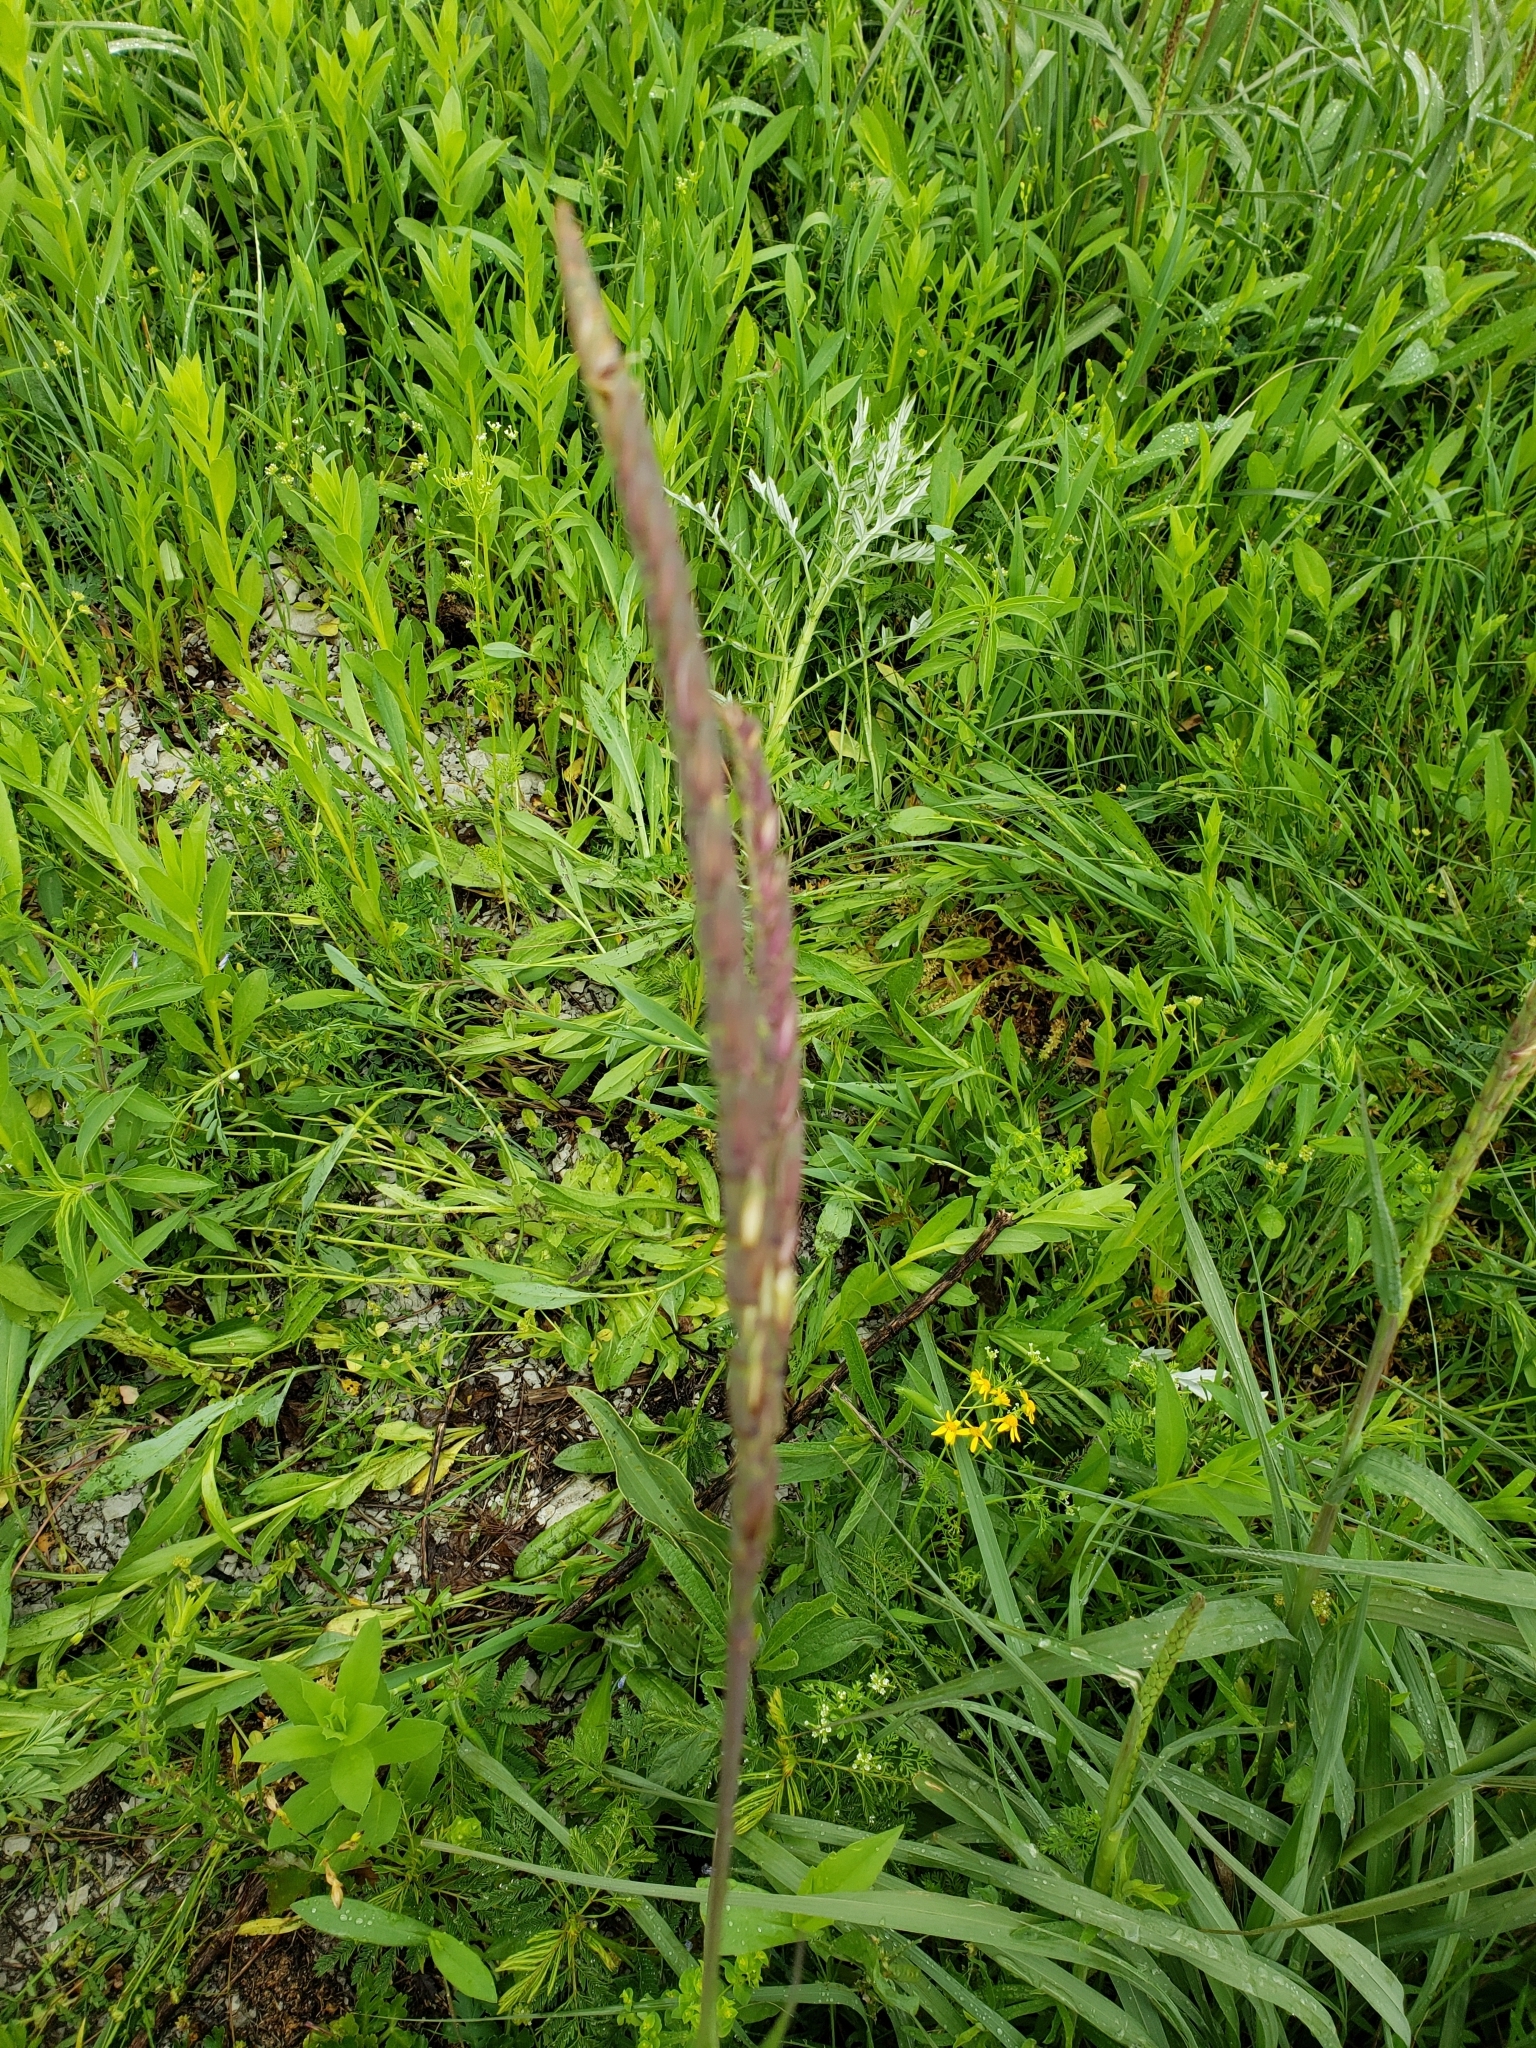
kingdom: Plantae
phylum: Tracheophyta
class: Liliopsida
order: Poales
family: Poaceae
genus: Tripsacum
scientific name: Tripsacum dactyloides
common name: Buffalo-grass
